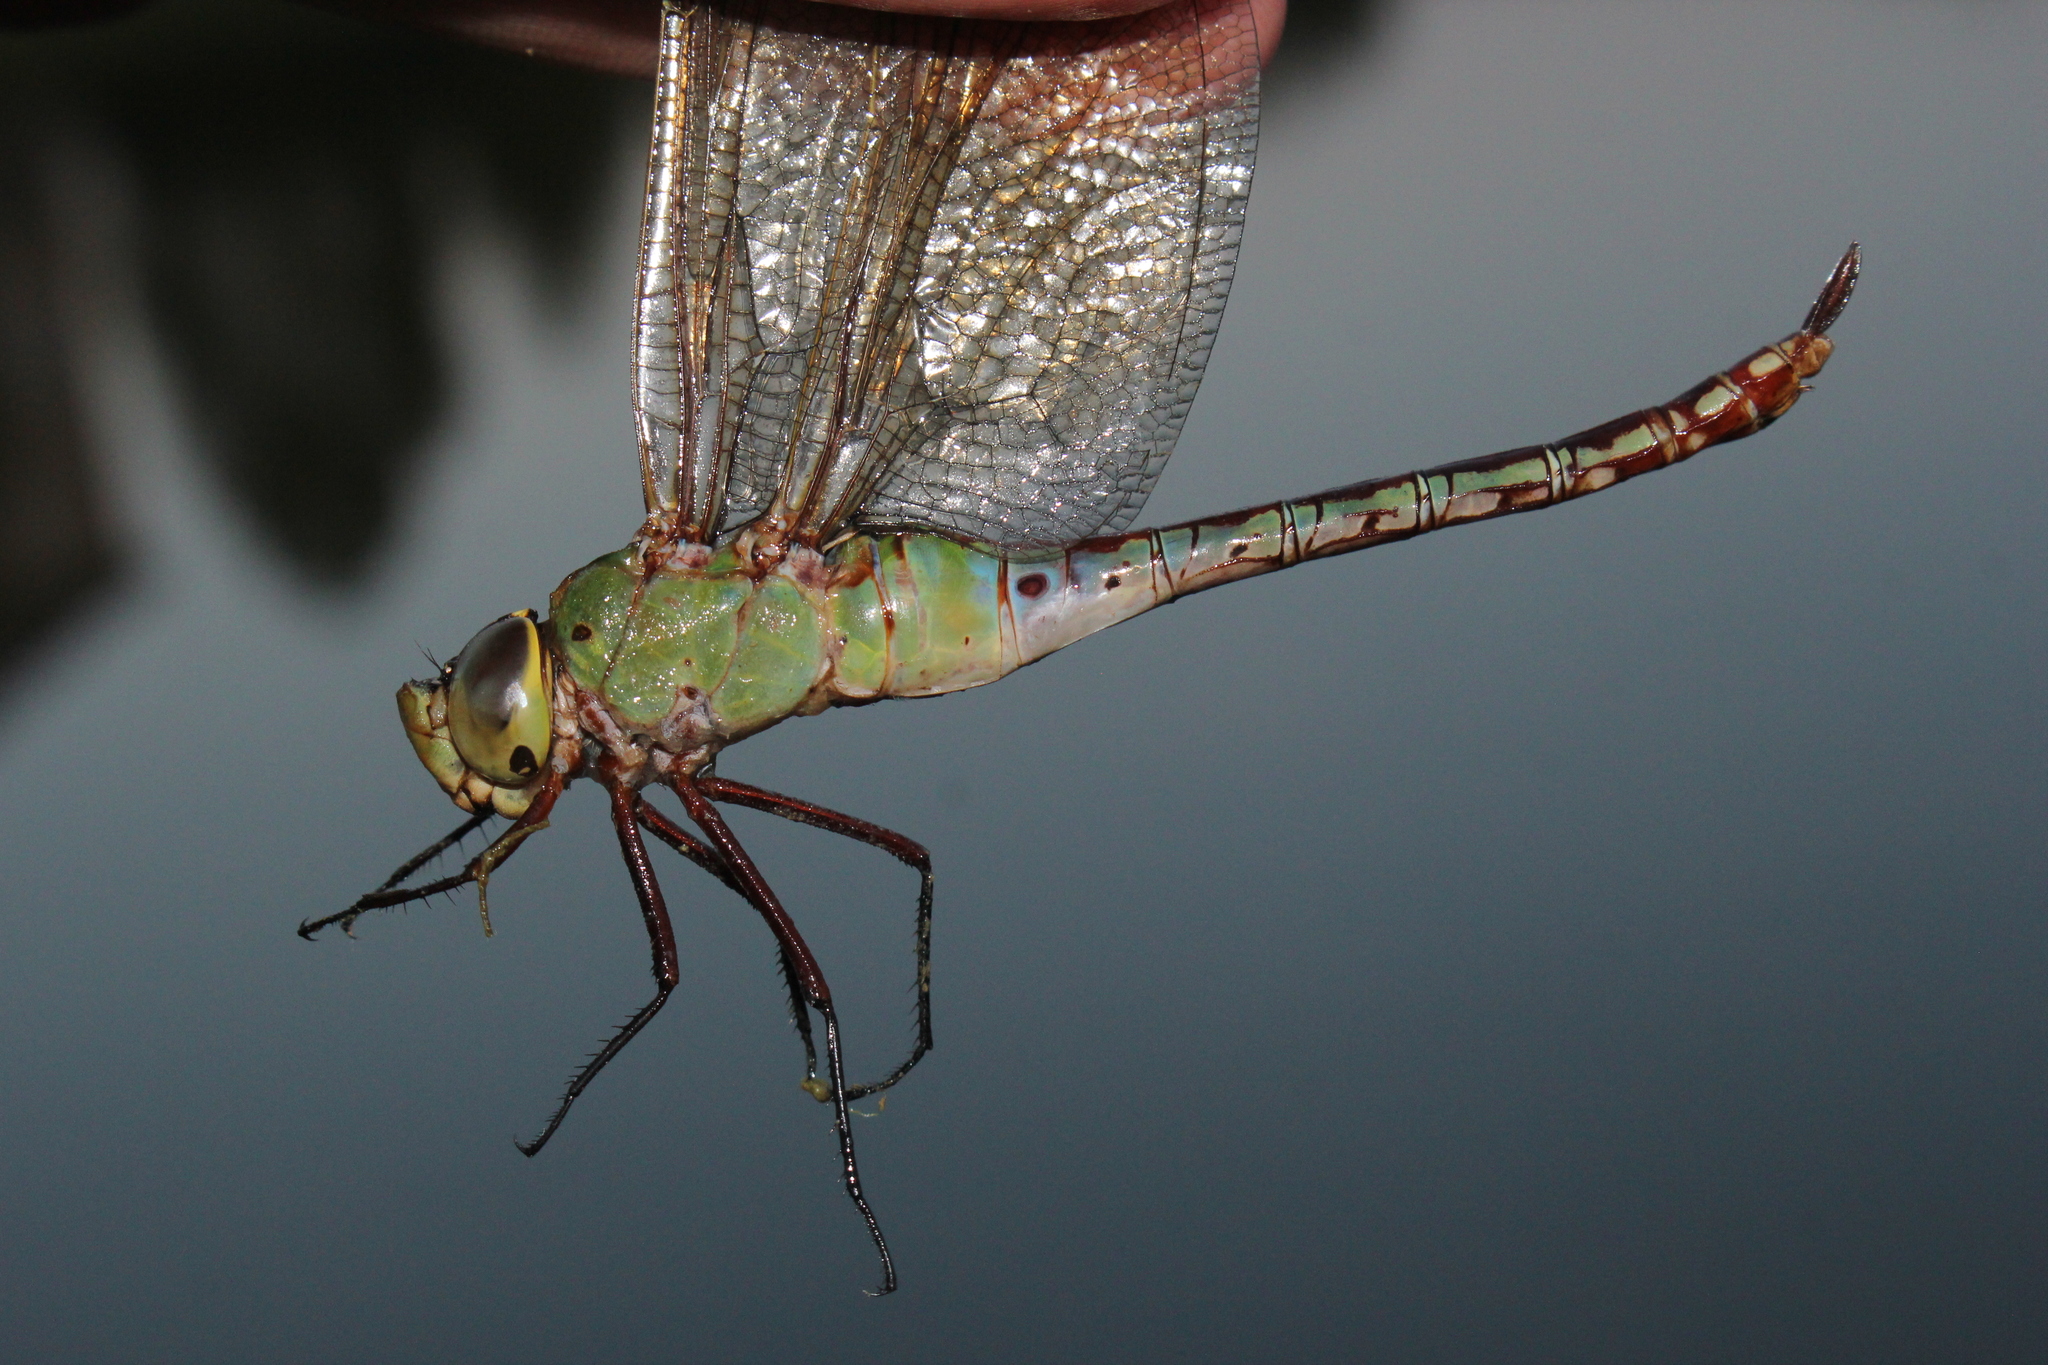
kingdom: Animalia
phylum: Arthropoda
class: Insecta
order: Odonata
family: Aeshnidae
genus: Anax
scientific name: Anax junius
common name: Common green darner
